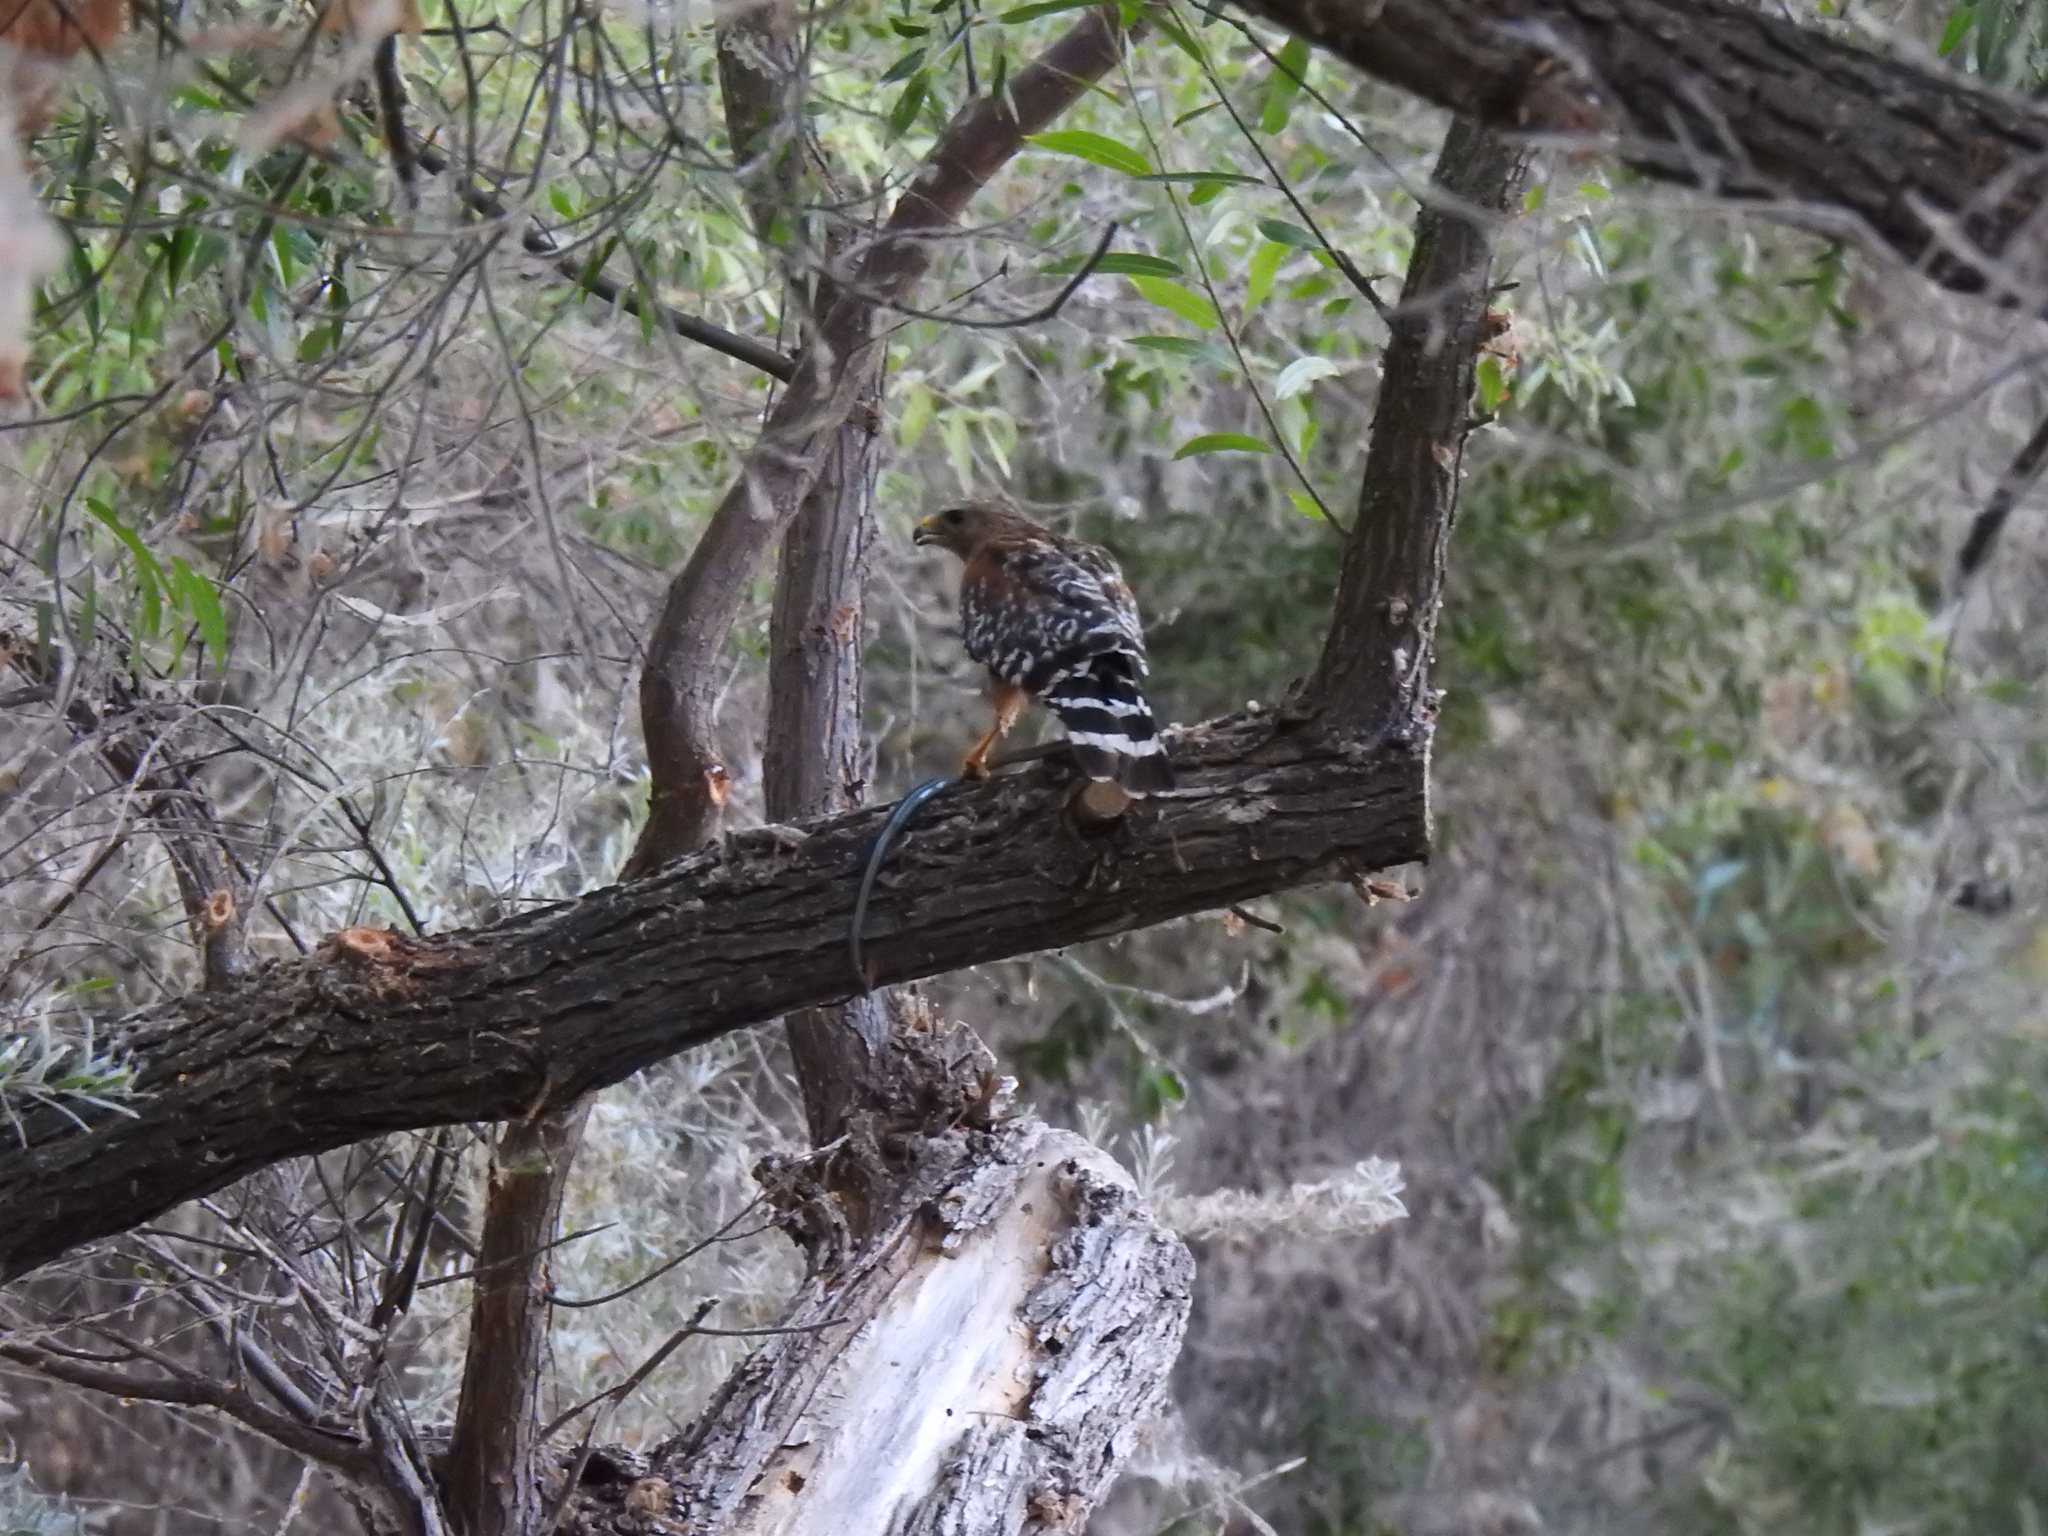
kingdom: Animalia
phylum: Chordata
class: Aves
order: Accipitriformes
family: Accipitridae
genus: Buteo
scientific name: Buteo lineatus
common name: Red-shouldered hawk
